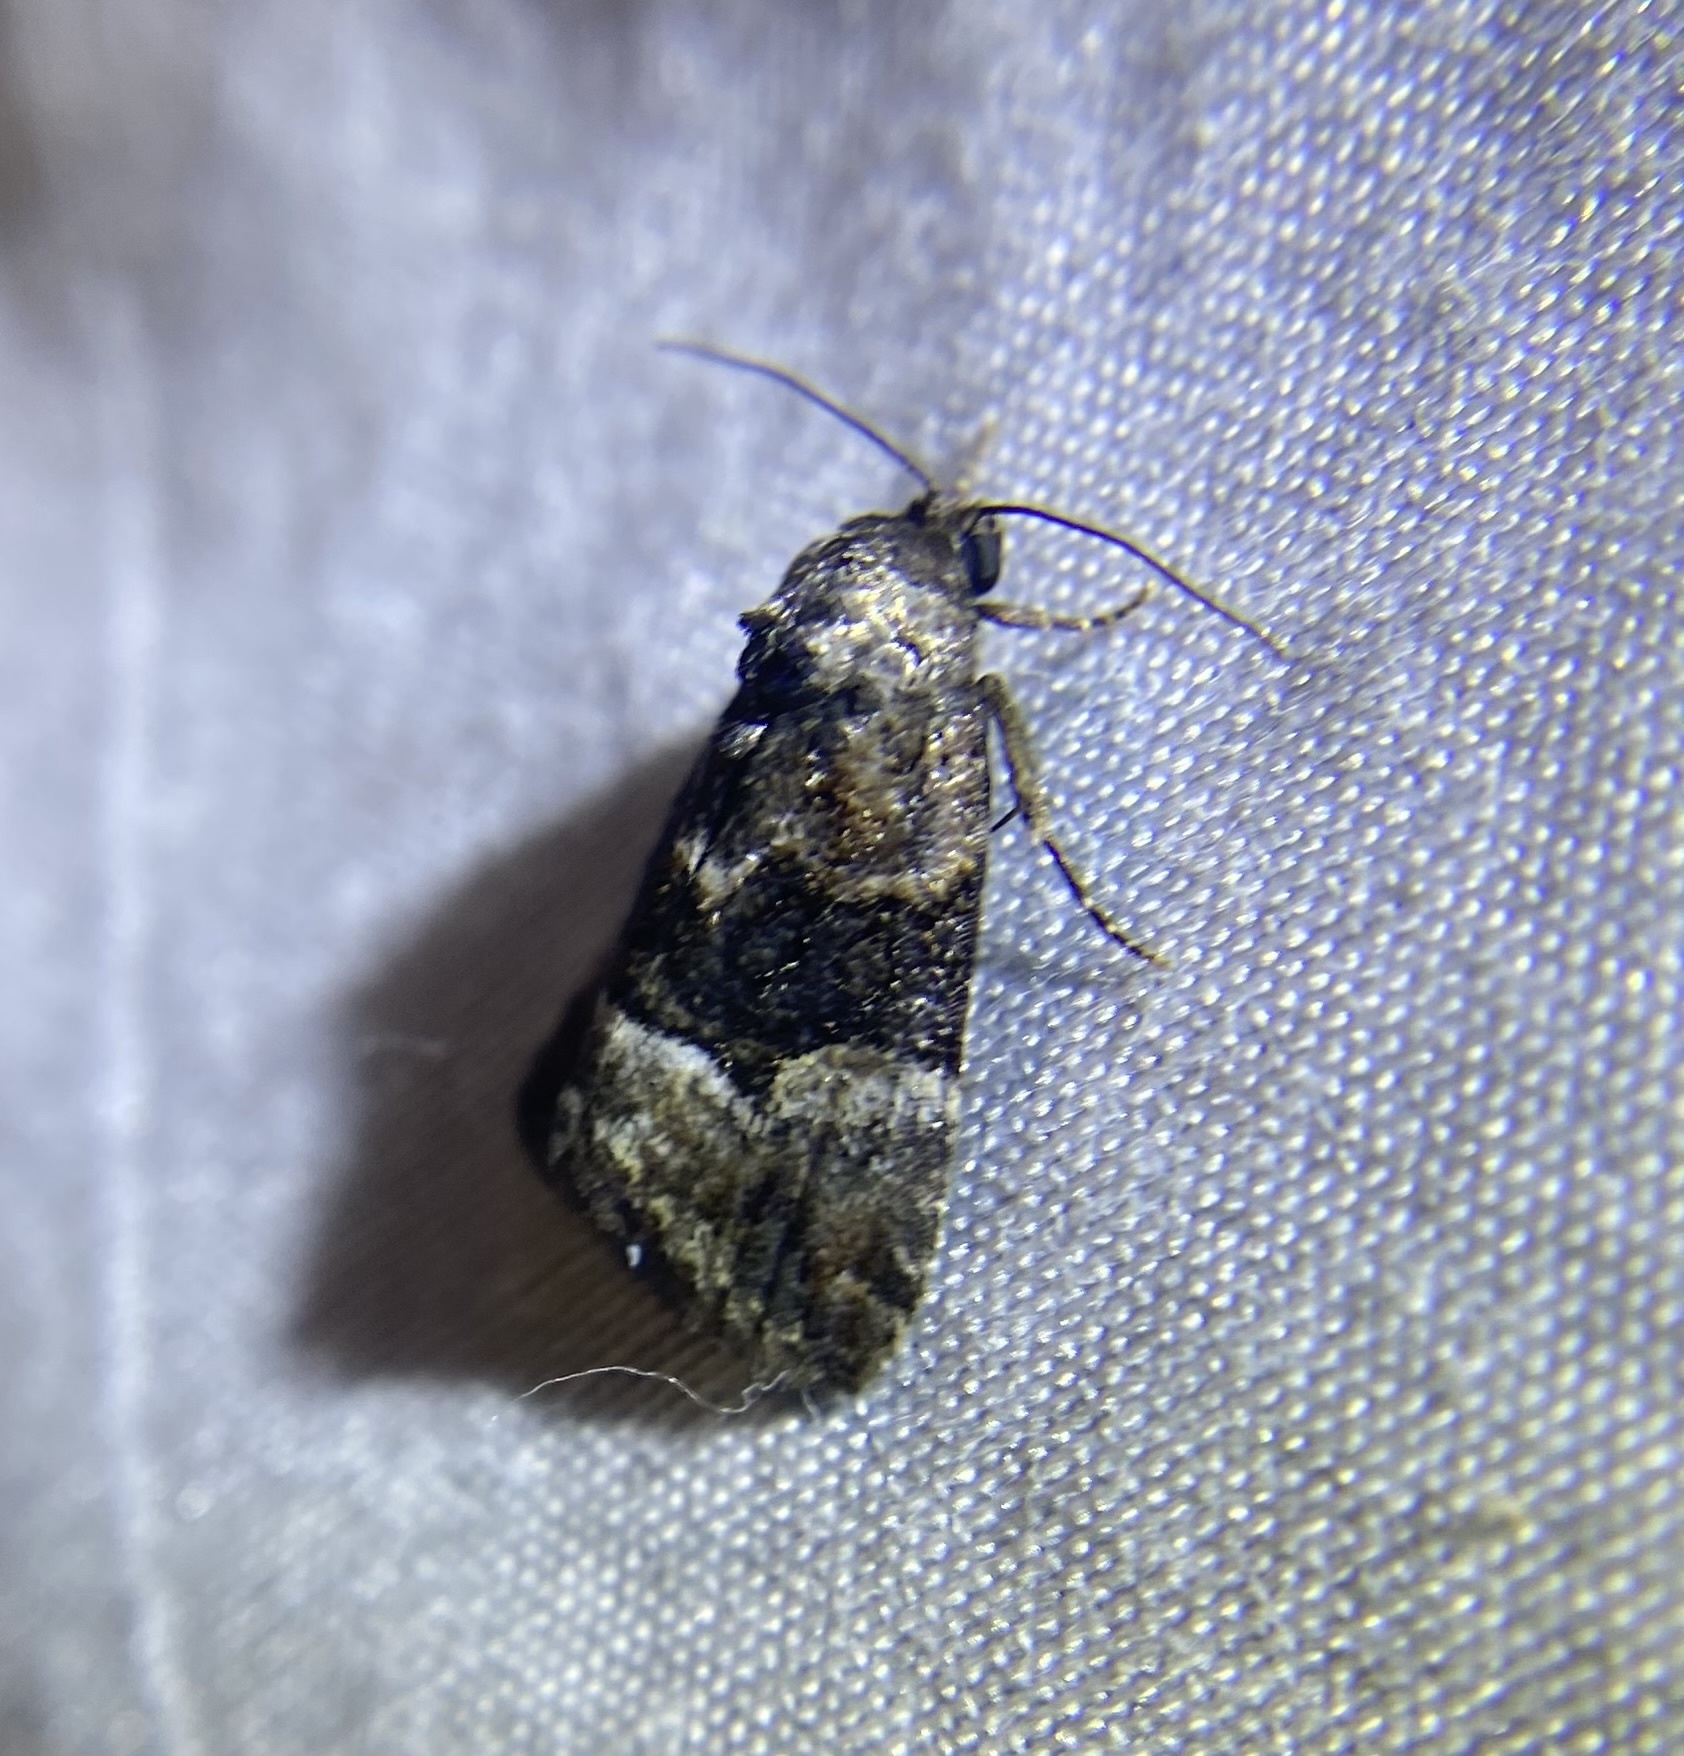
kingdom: Animalia
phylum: Arthropoda
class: Insecta
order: Lepidoptera
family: Noctuidae
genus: Elaphria
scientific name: Elaphria georgei
